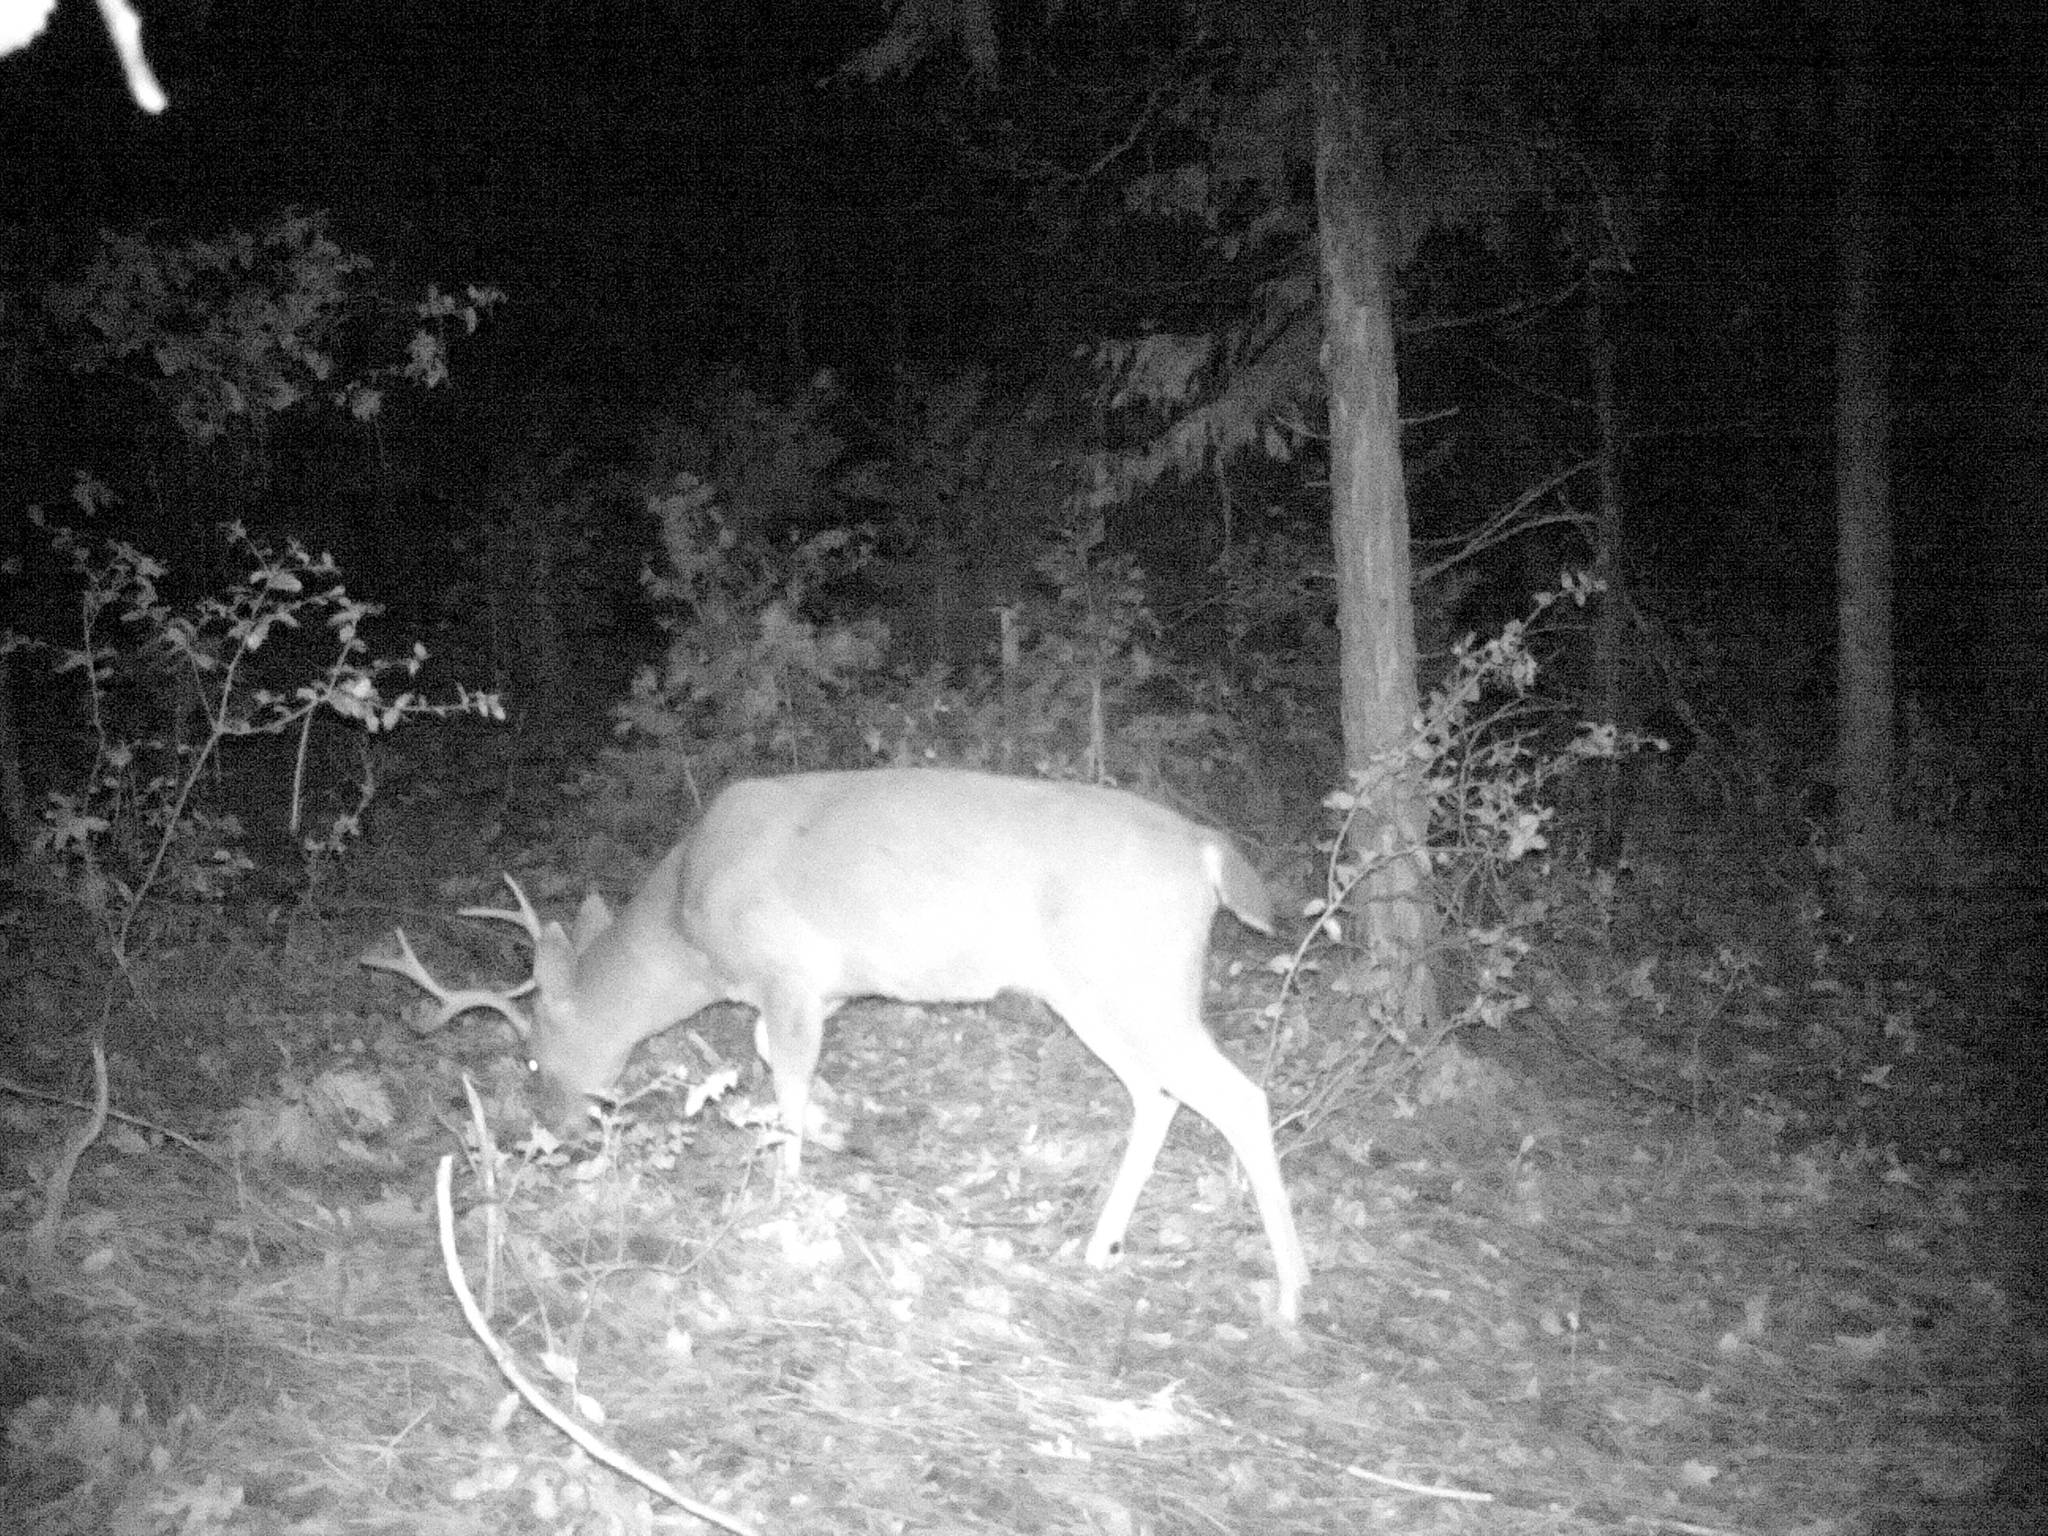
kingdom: Animalia
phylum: Chordata
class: Mammalia
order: Artiodactyla
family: Cervidae
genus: Odocoileus
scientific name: Odocoileus hemionus
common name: Mule deer
